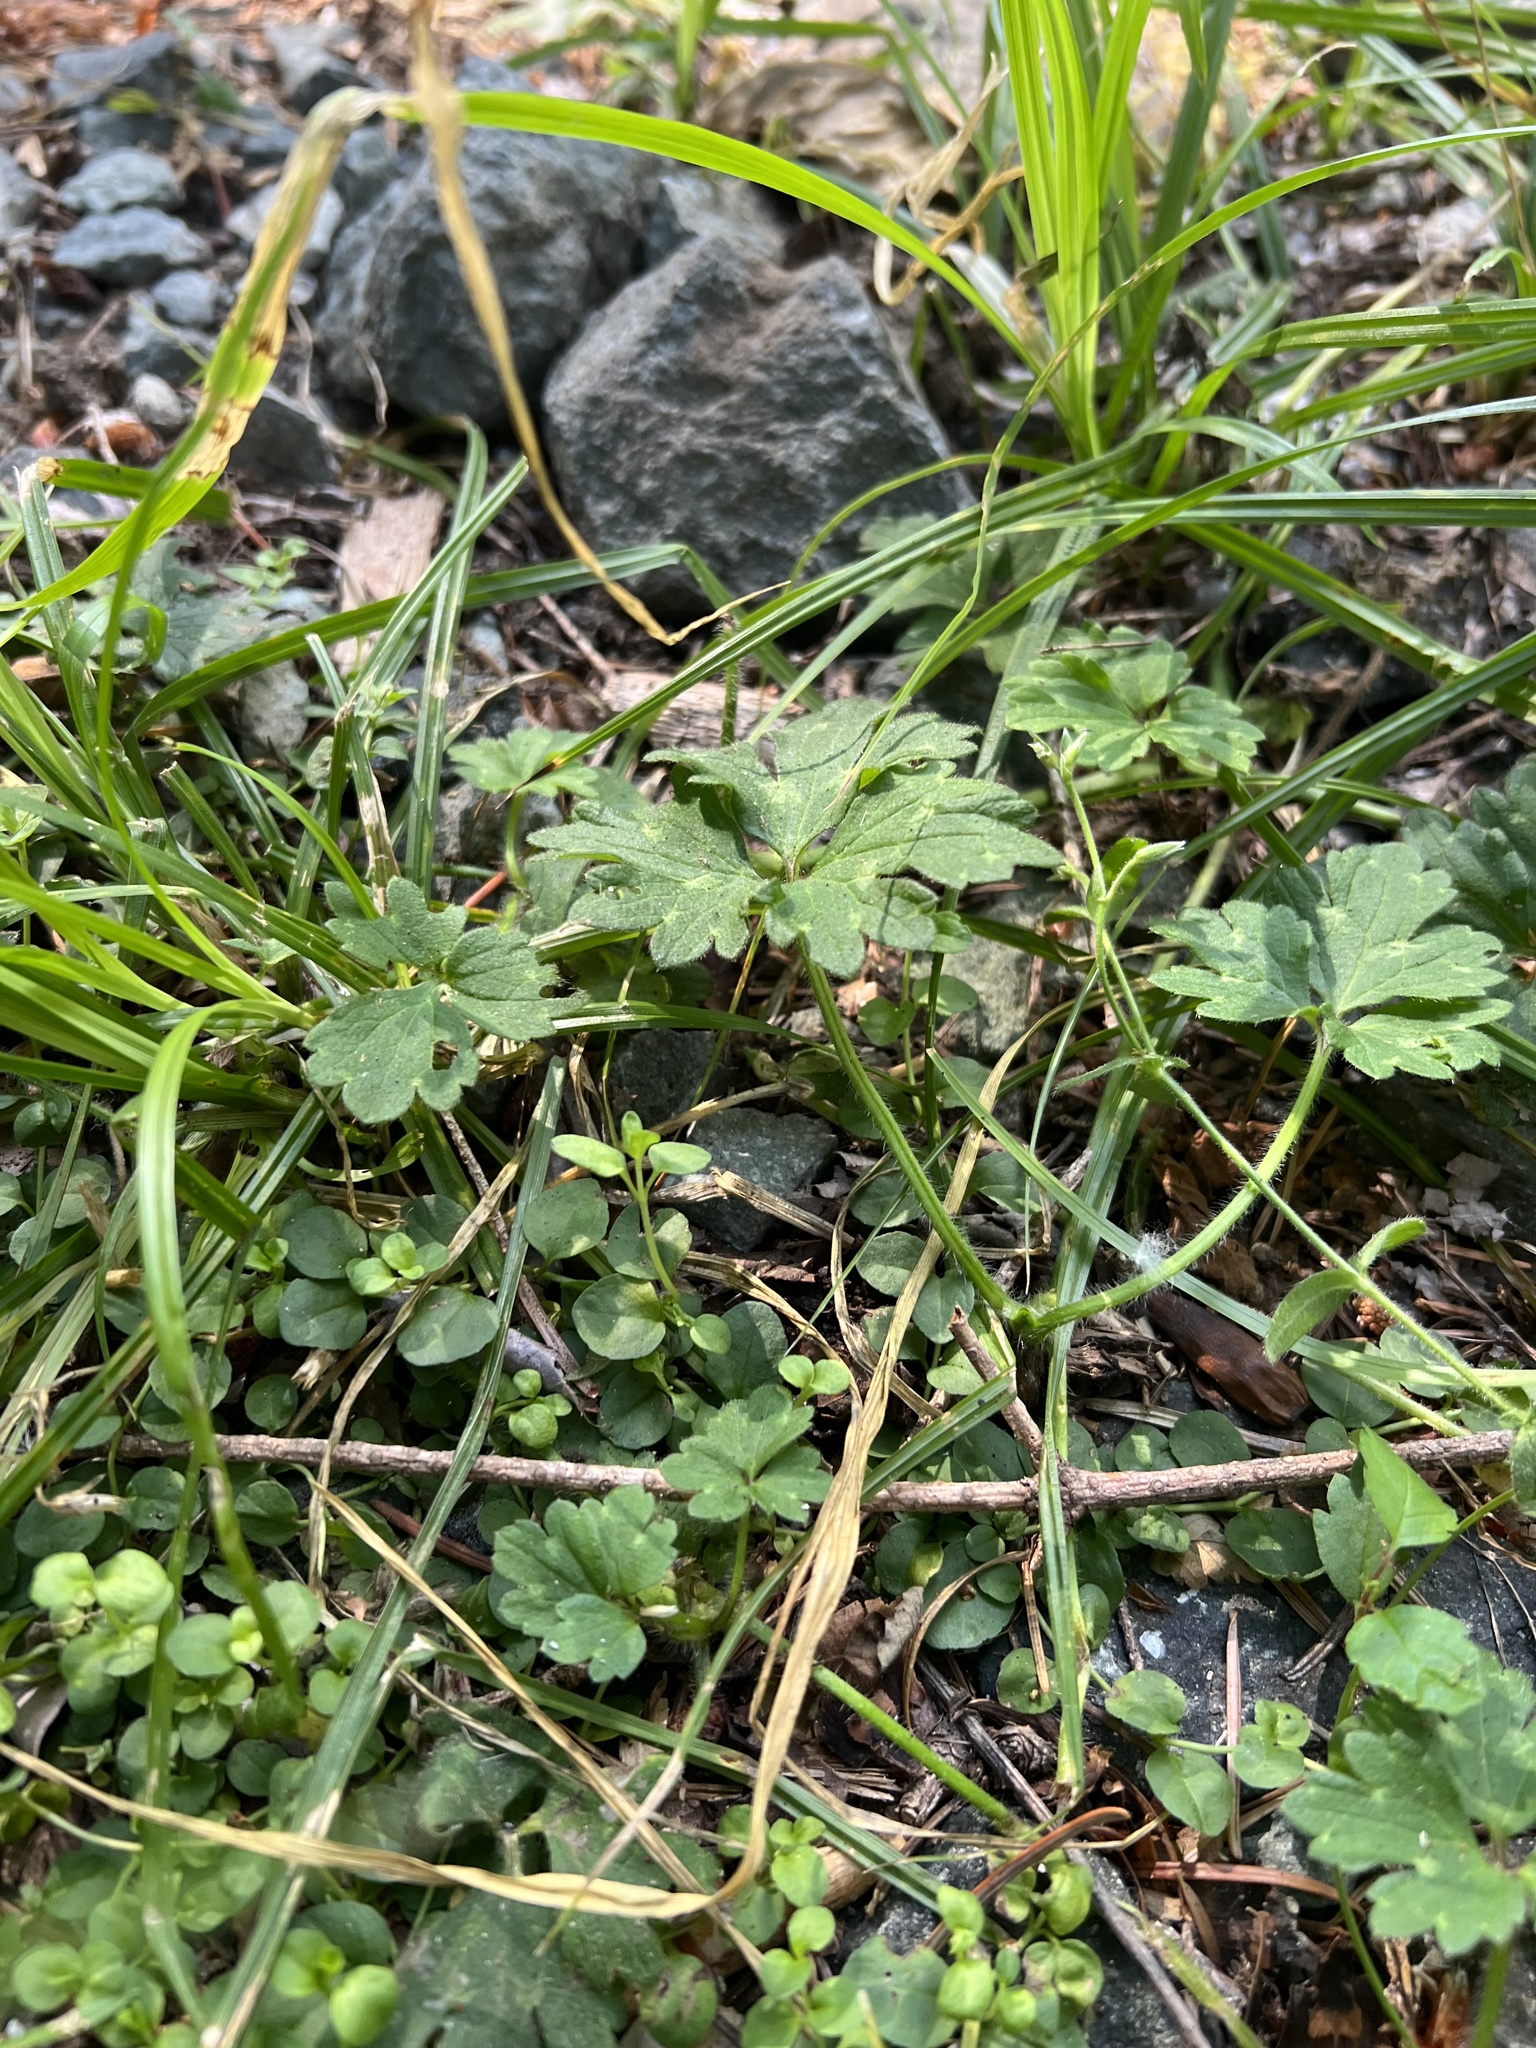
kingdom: Plantae
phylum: Tracheophyta
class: Magnoliopsida
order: Ranunculales
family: Ranunculaceae
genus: Ranunculus
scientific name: Ranunculus repens
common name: Creeping buttercup
